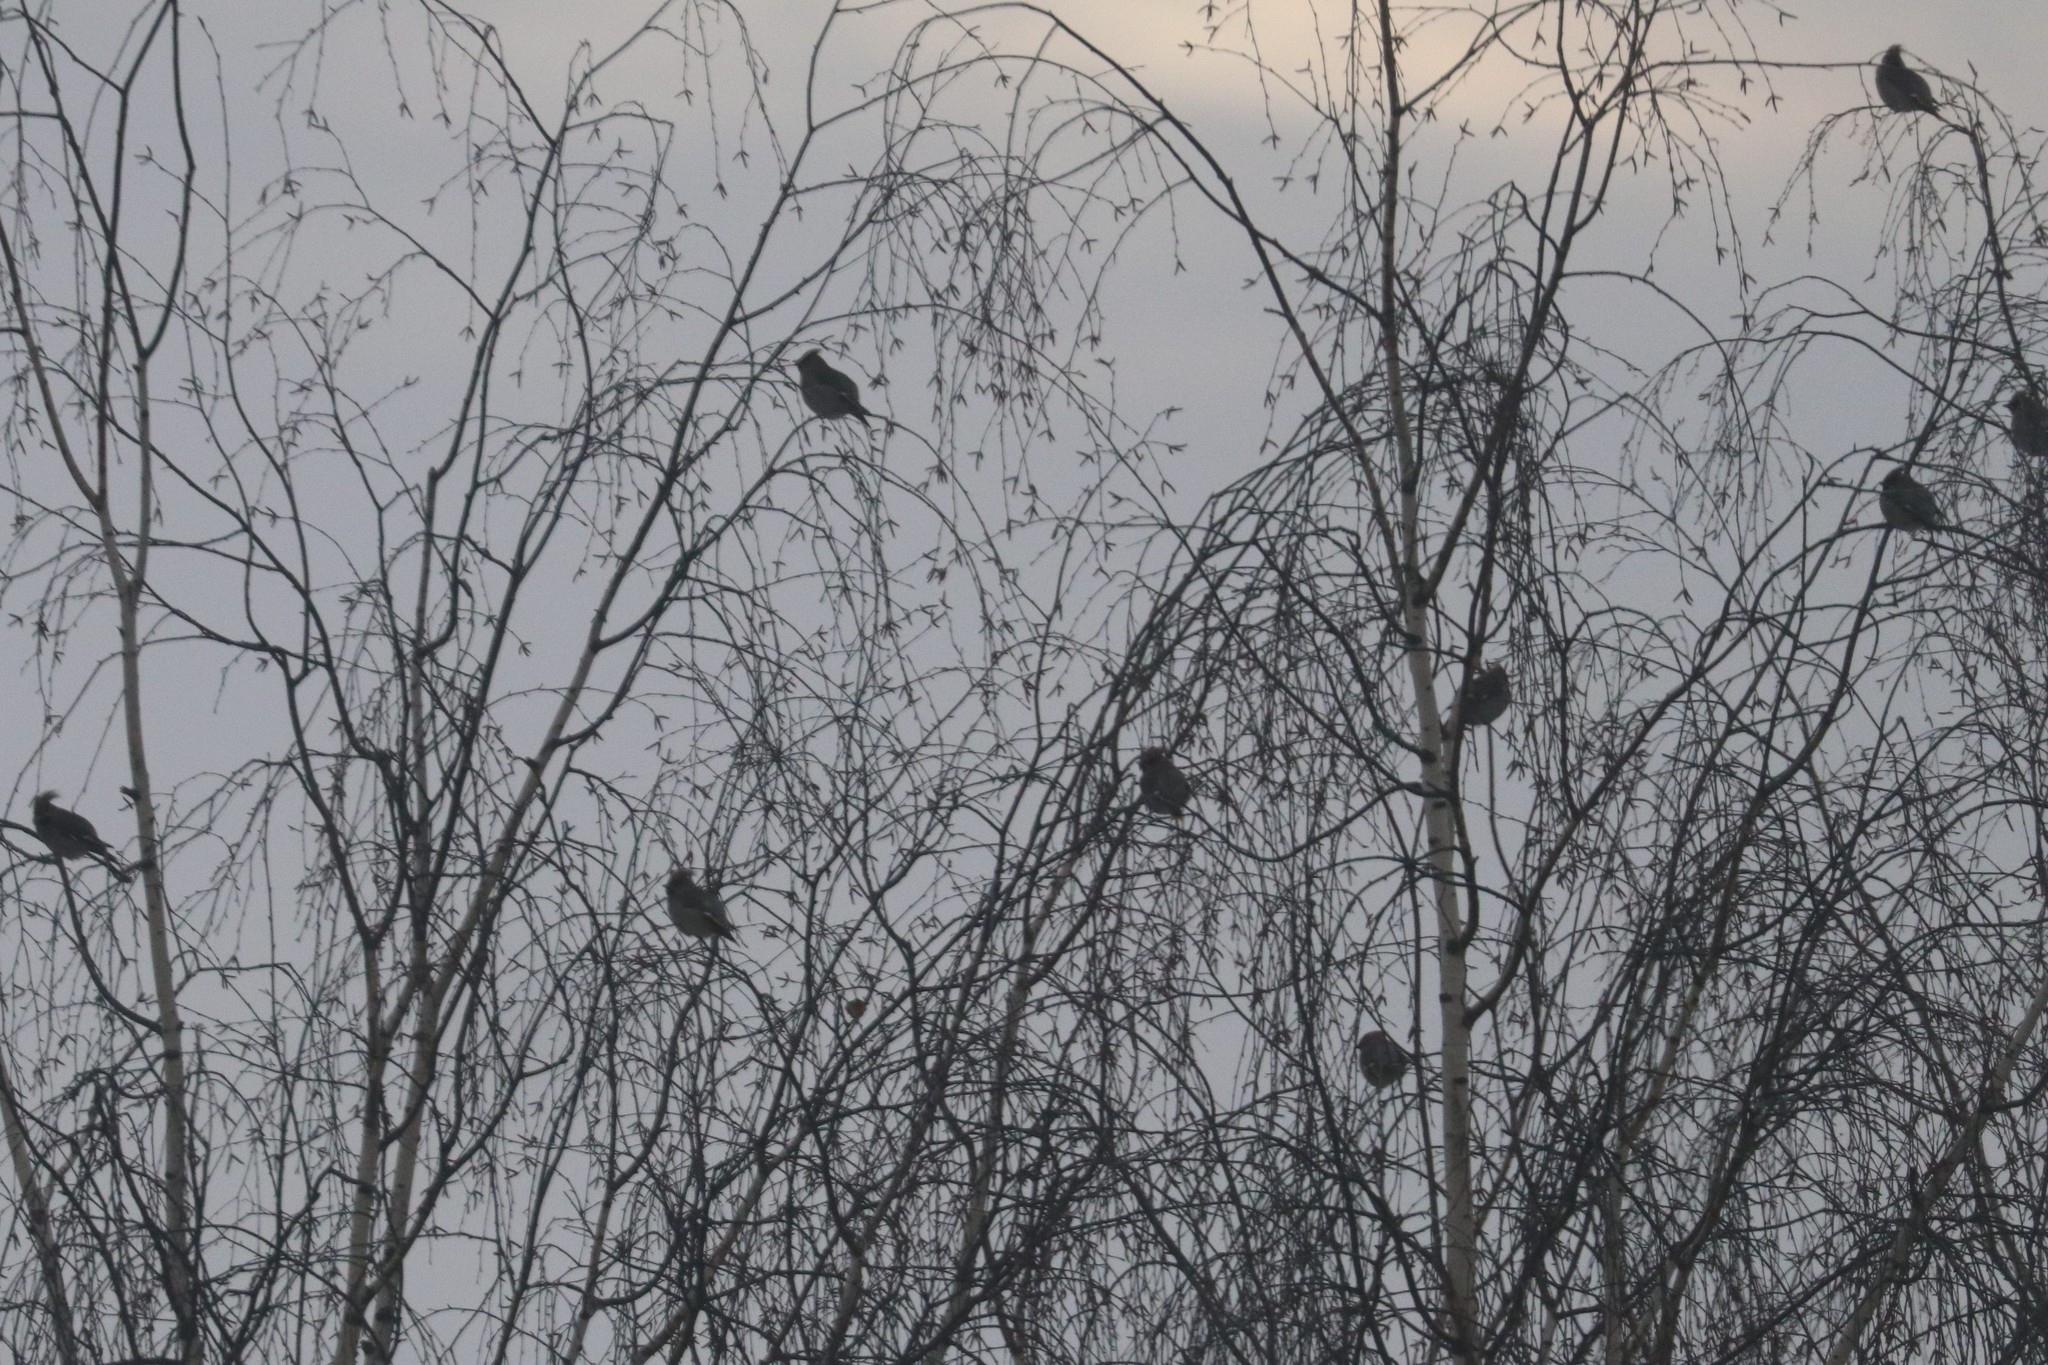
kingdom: Animalia
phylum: Chordata
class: Aves
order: Passeriformes
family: Bombycillidae
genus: Bombycilla
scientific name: Bombycilla garrulus
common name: Bohemian waxwing
